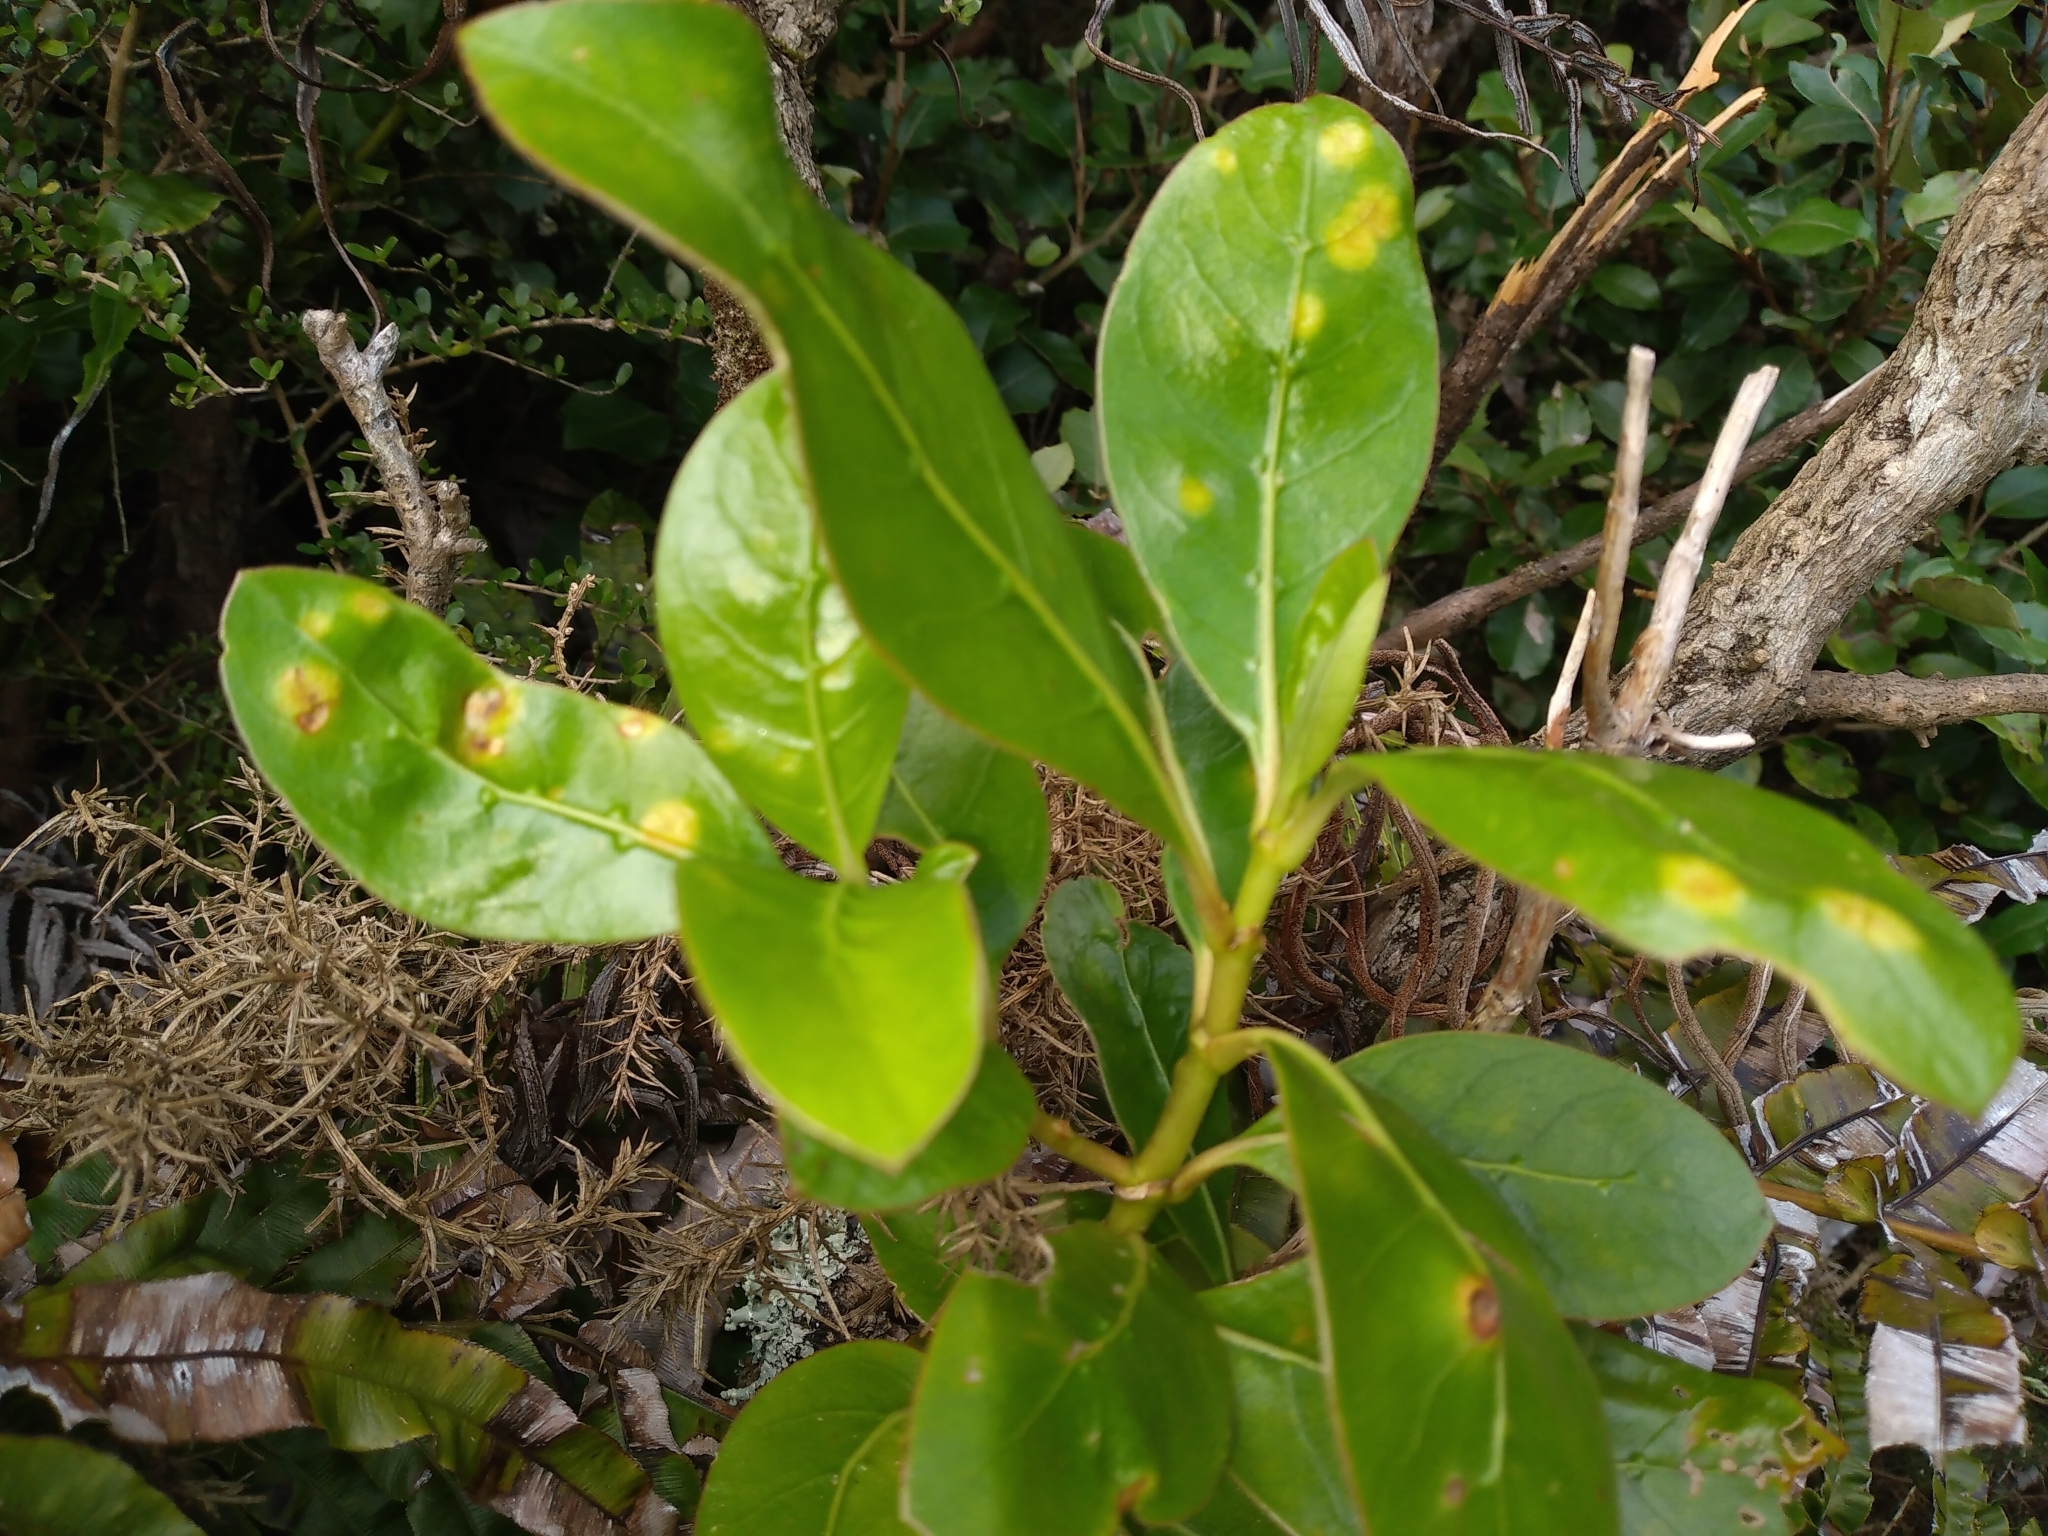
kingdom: Plantae
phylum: Tracheophyta
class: Magnoliopsida
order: Gentianales
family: Rubiaceae
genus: Coprosma
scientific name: Coprosma lucida
